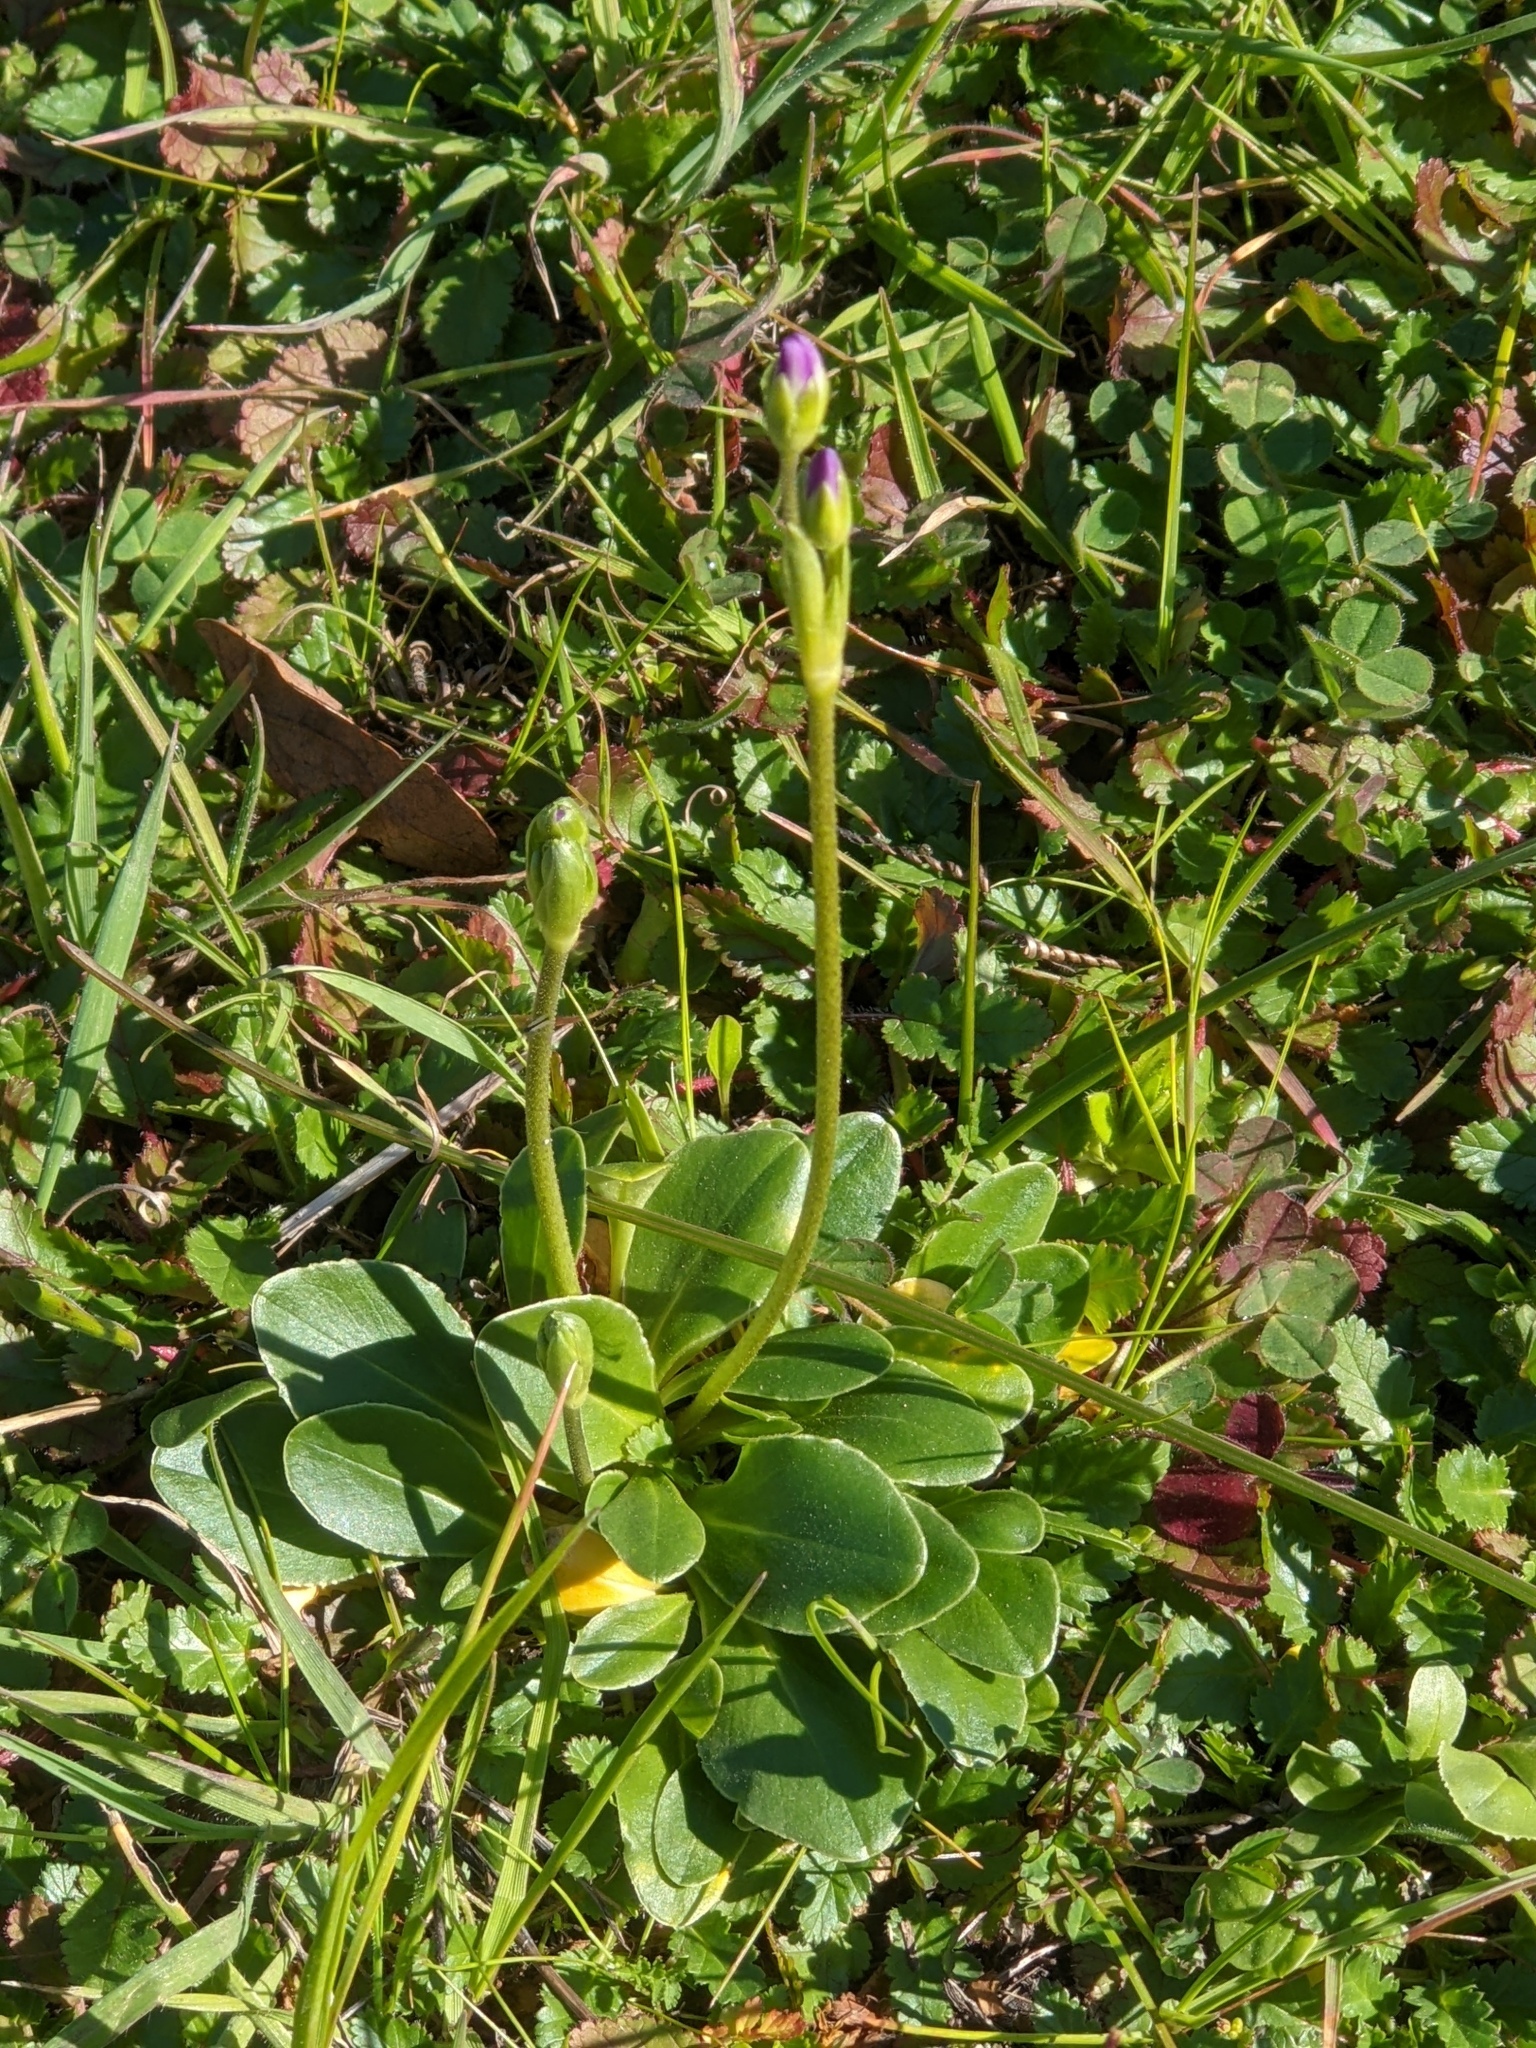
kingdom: Plantae
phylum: Tracheophyta
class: Magnoliopsida
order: Ericales
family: Primulaceae
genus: Dodecatheon
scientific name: Dodecatheon clevelandii
